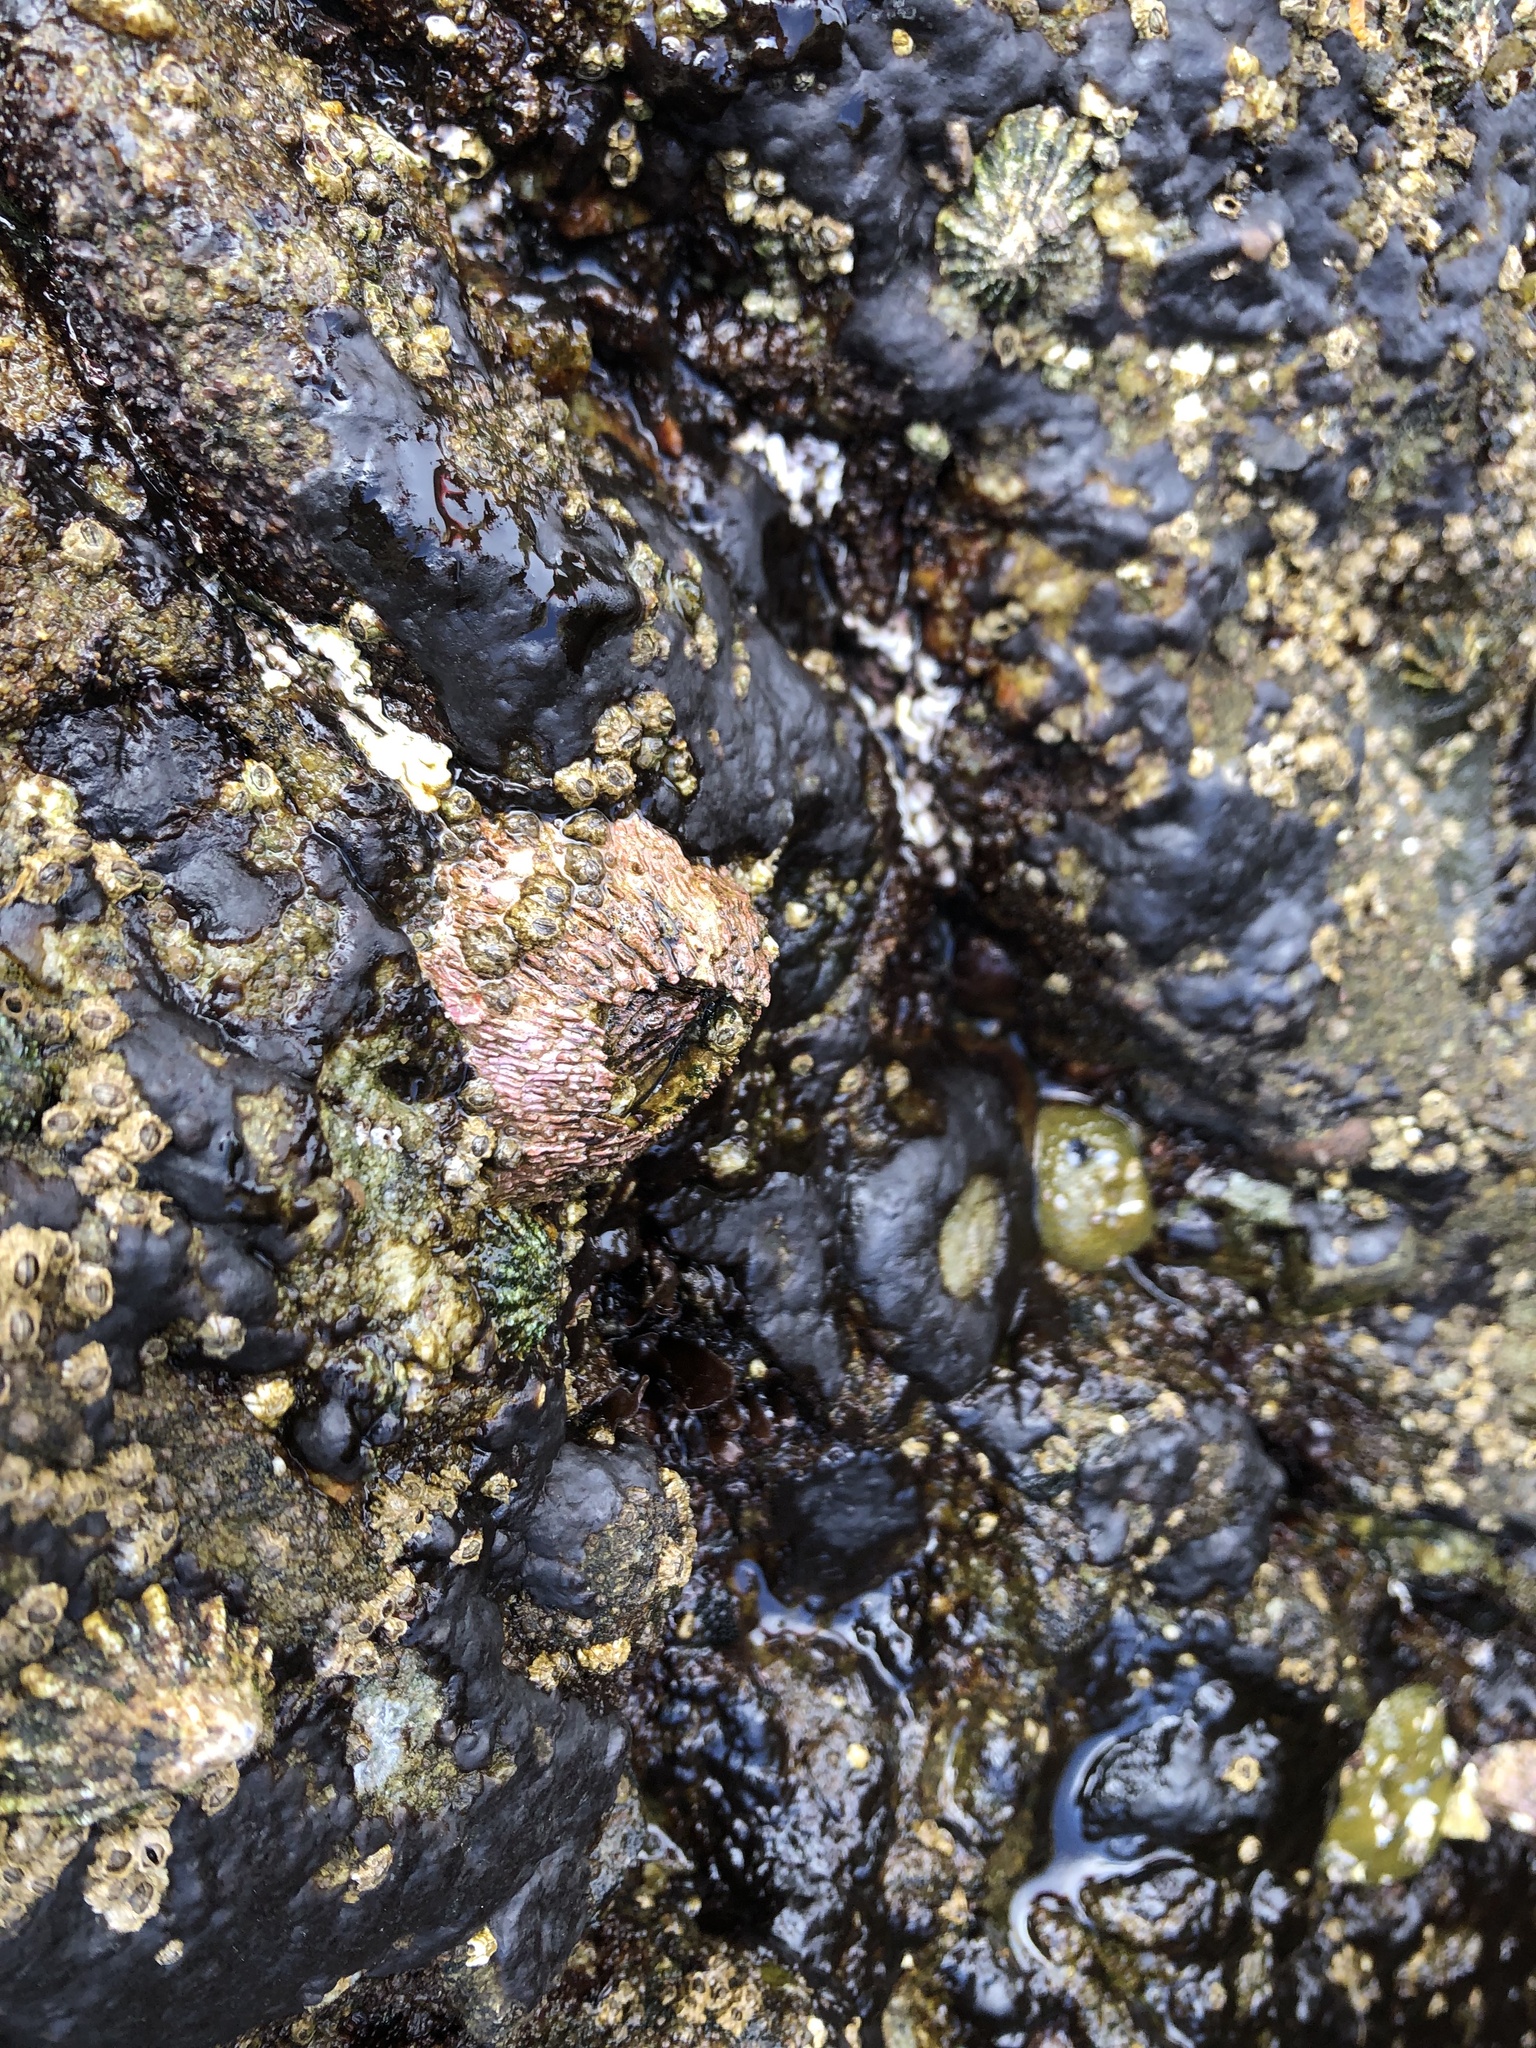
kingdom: Animalia
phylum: Arthropoda
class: Maxillopoda
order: Sessilia
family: Tetraclitidae
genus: Tetraclita
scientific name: Tetraclita rubescens
